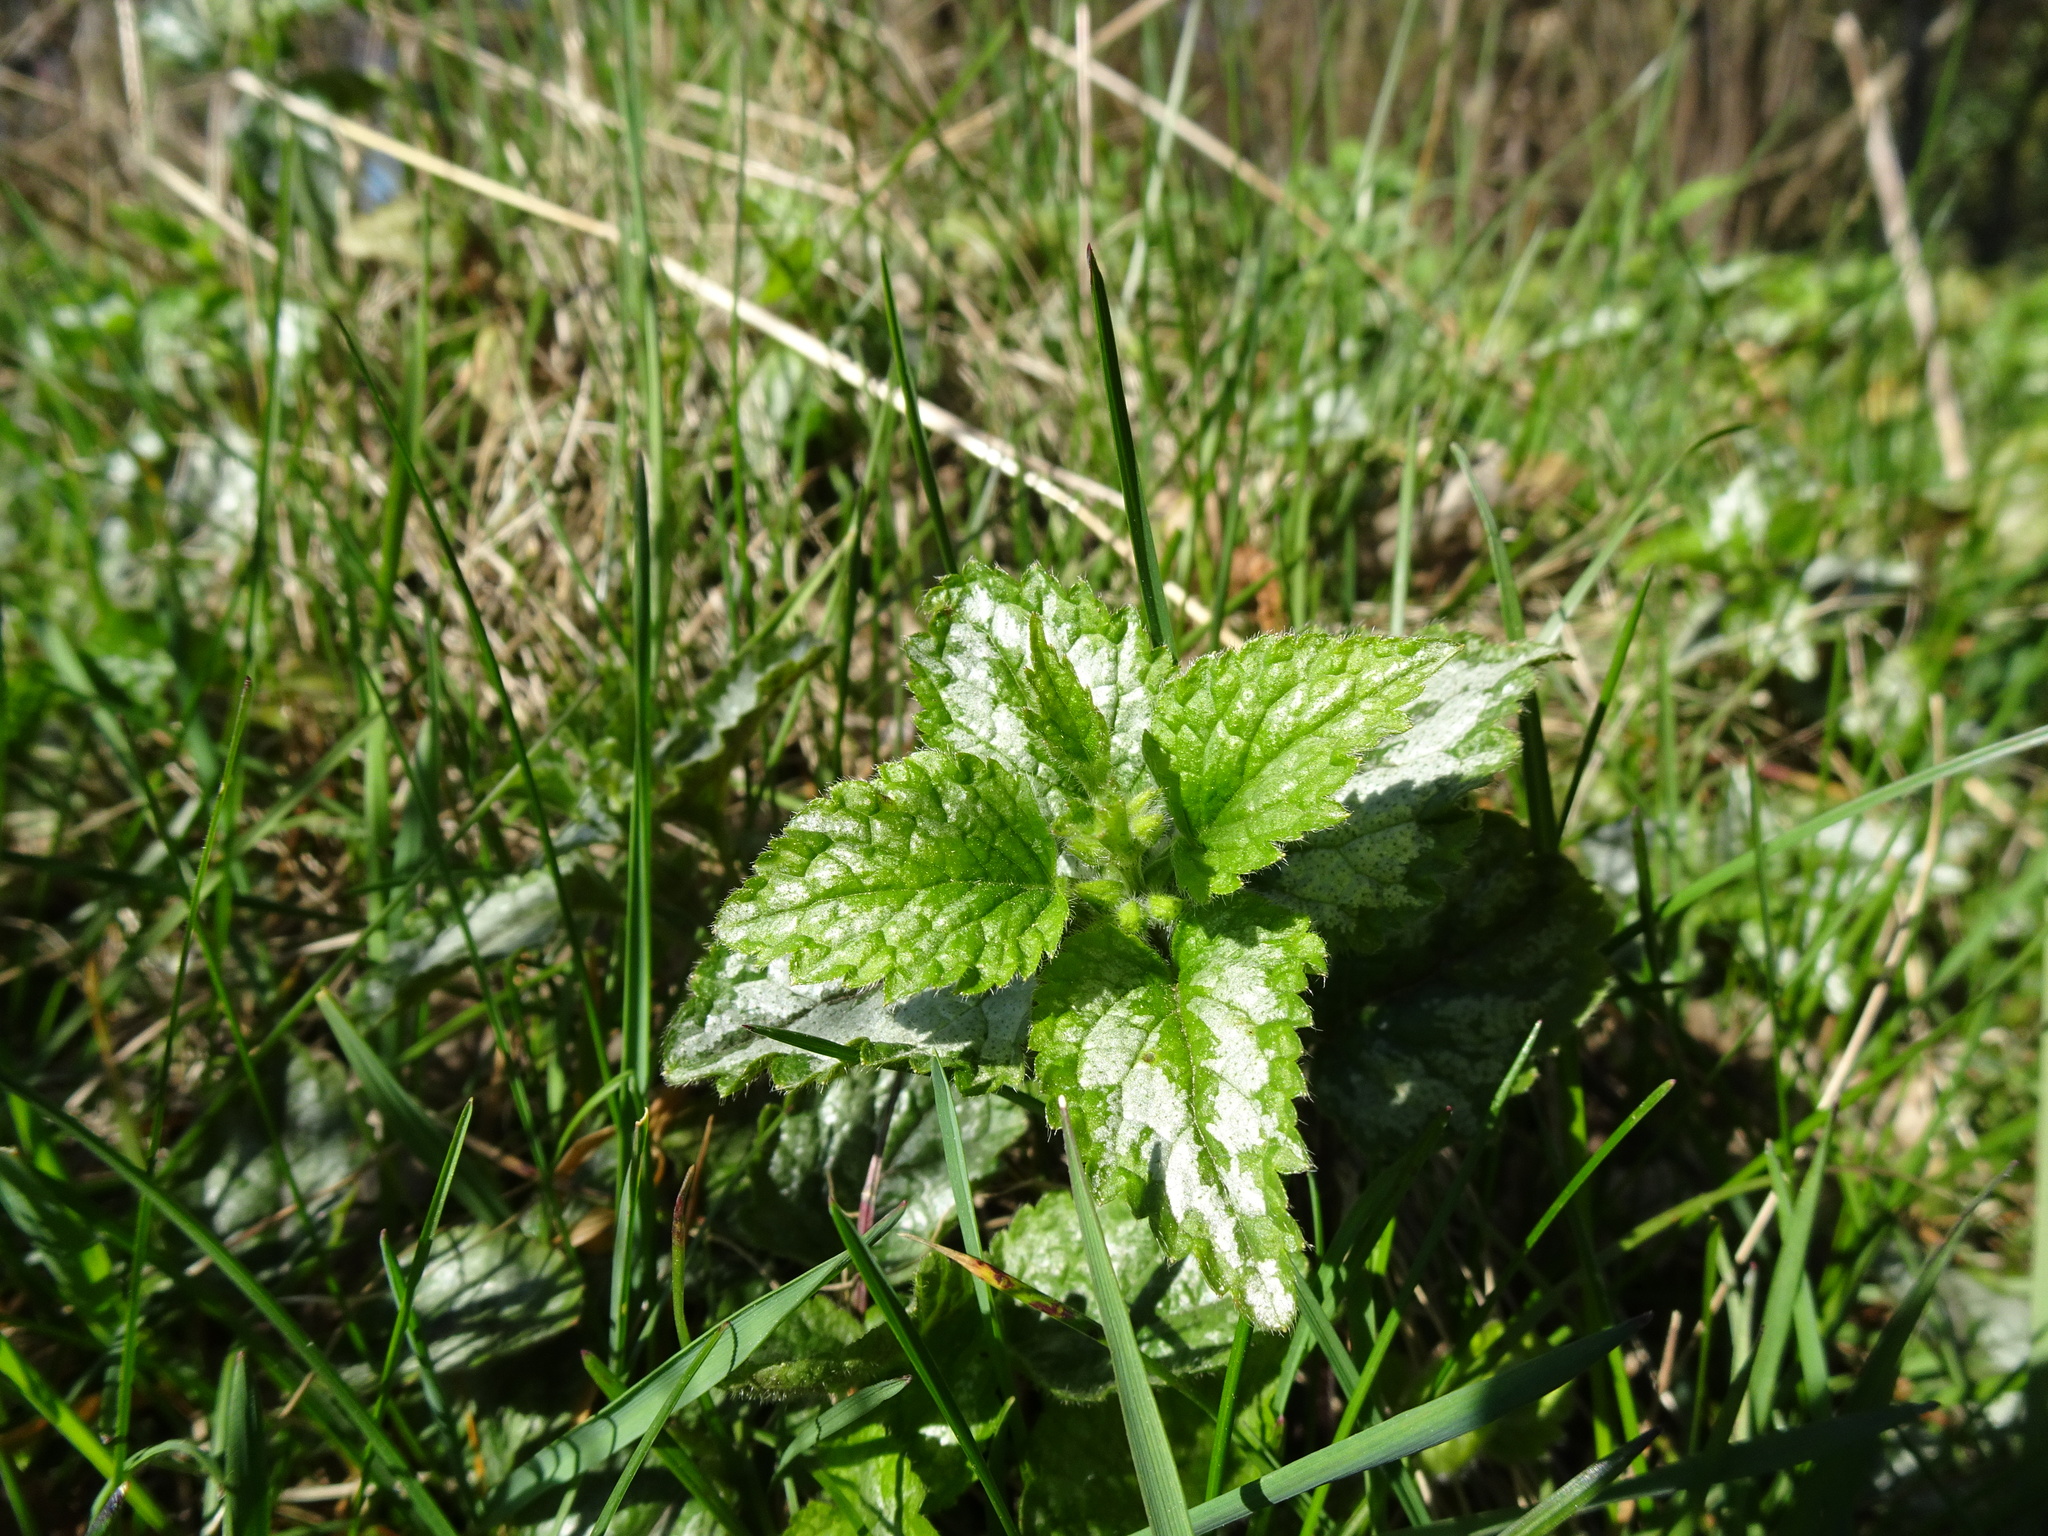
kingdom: Plantae
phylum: Tracheophyta
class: Magnoliopsida
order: Lamiales
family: Lamiaceae
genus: Lamium
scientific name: Lamium galeobdolon
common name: Yellow archangel
